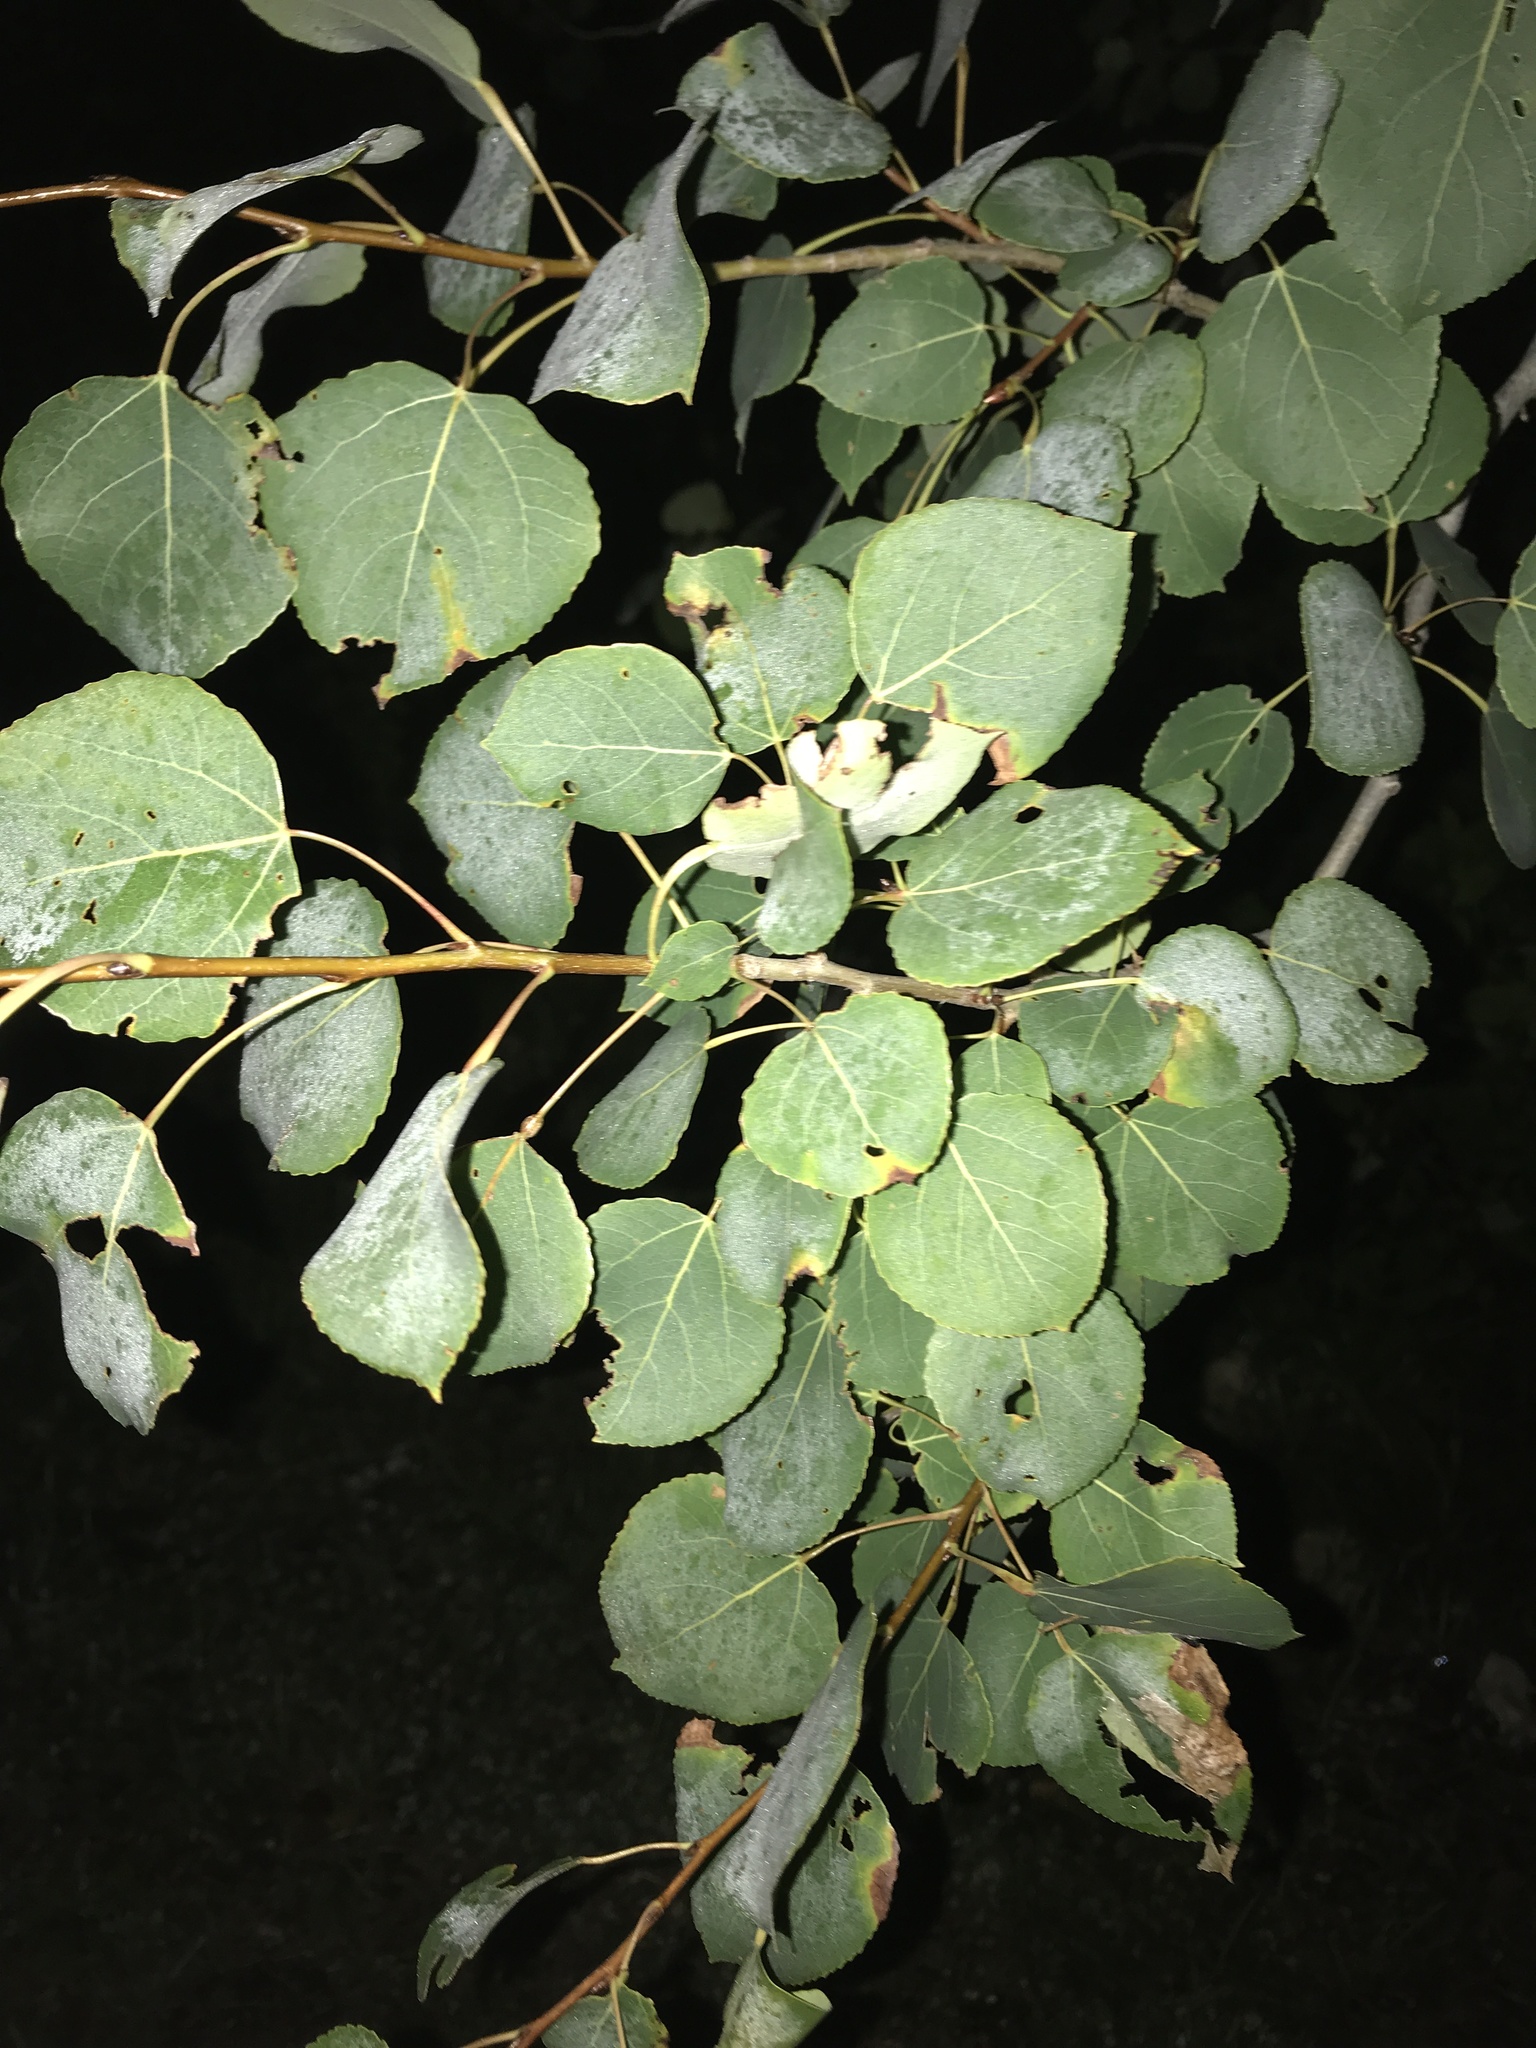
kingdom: Plantae
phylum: Tracheophyta
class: Magnoliopsida
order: Malpighiales
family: Salicaceae
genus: Populus
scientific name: Populus tremuloides
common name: Quaking aspen
